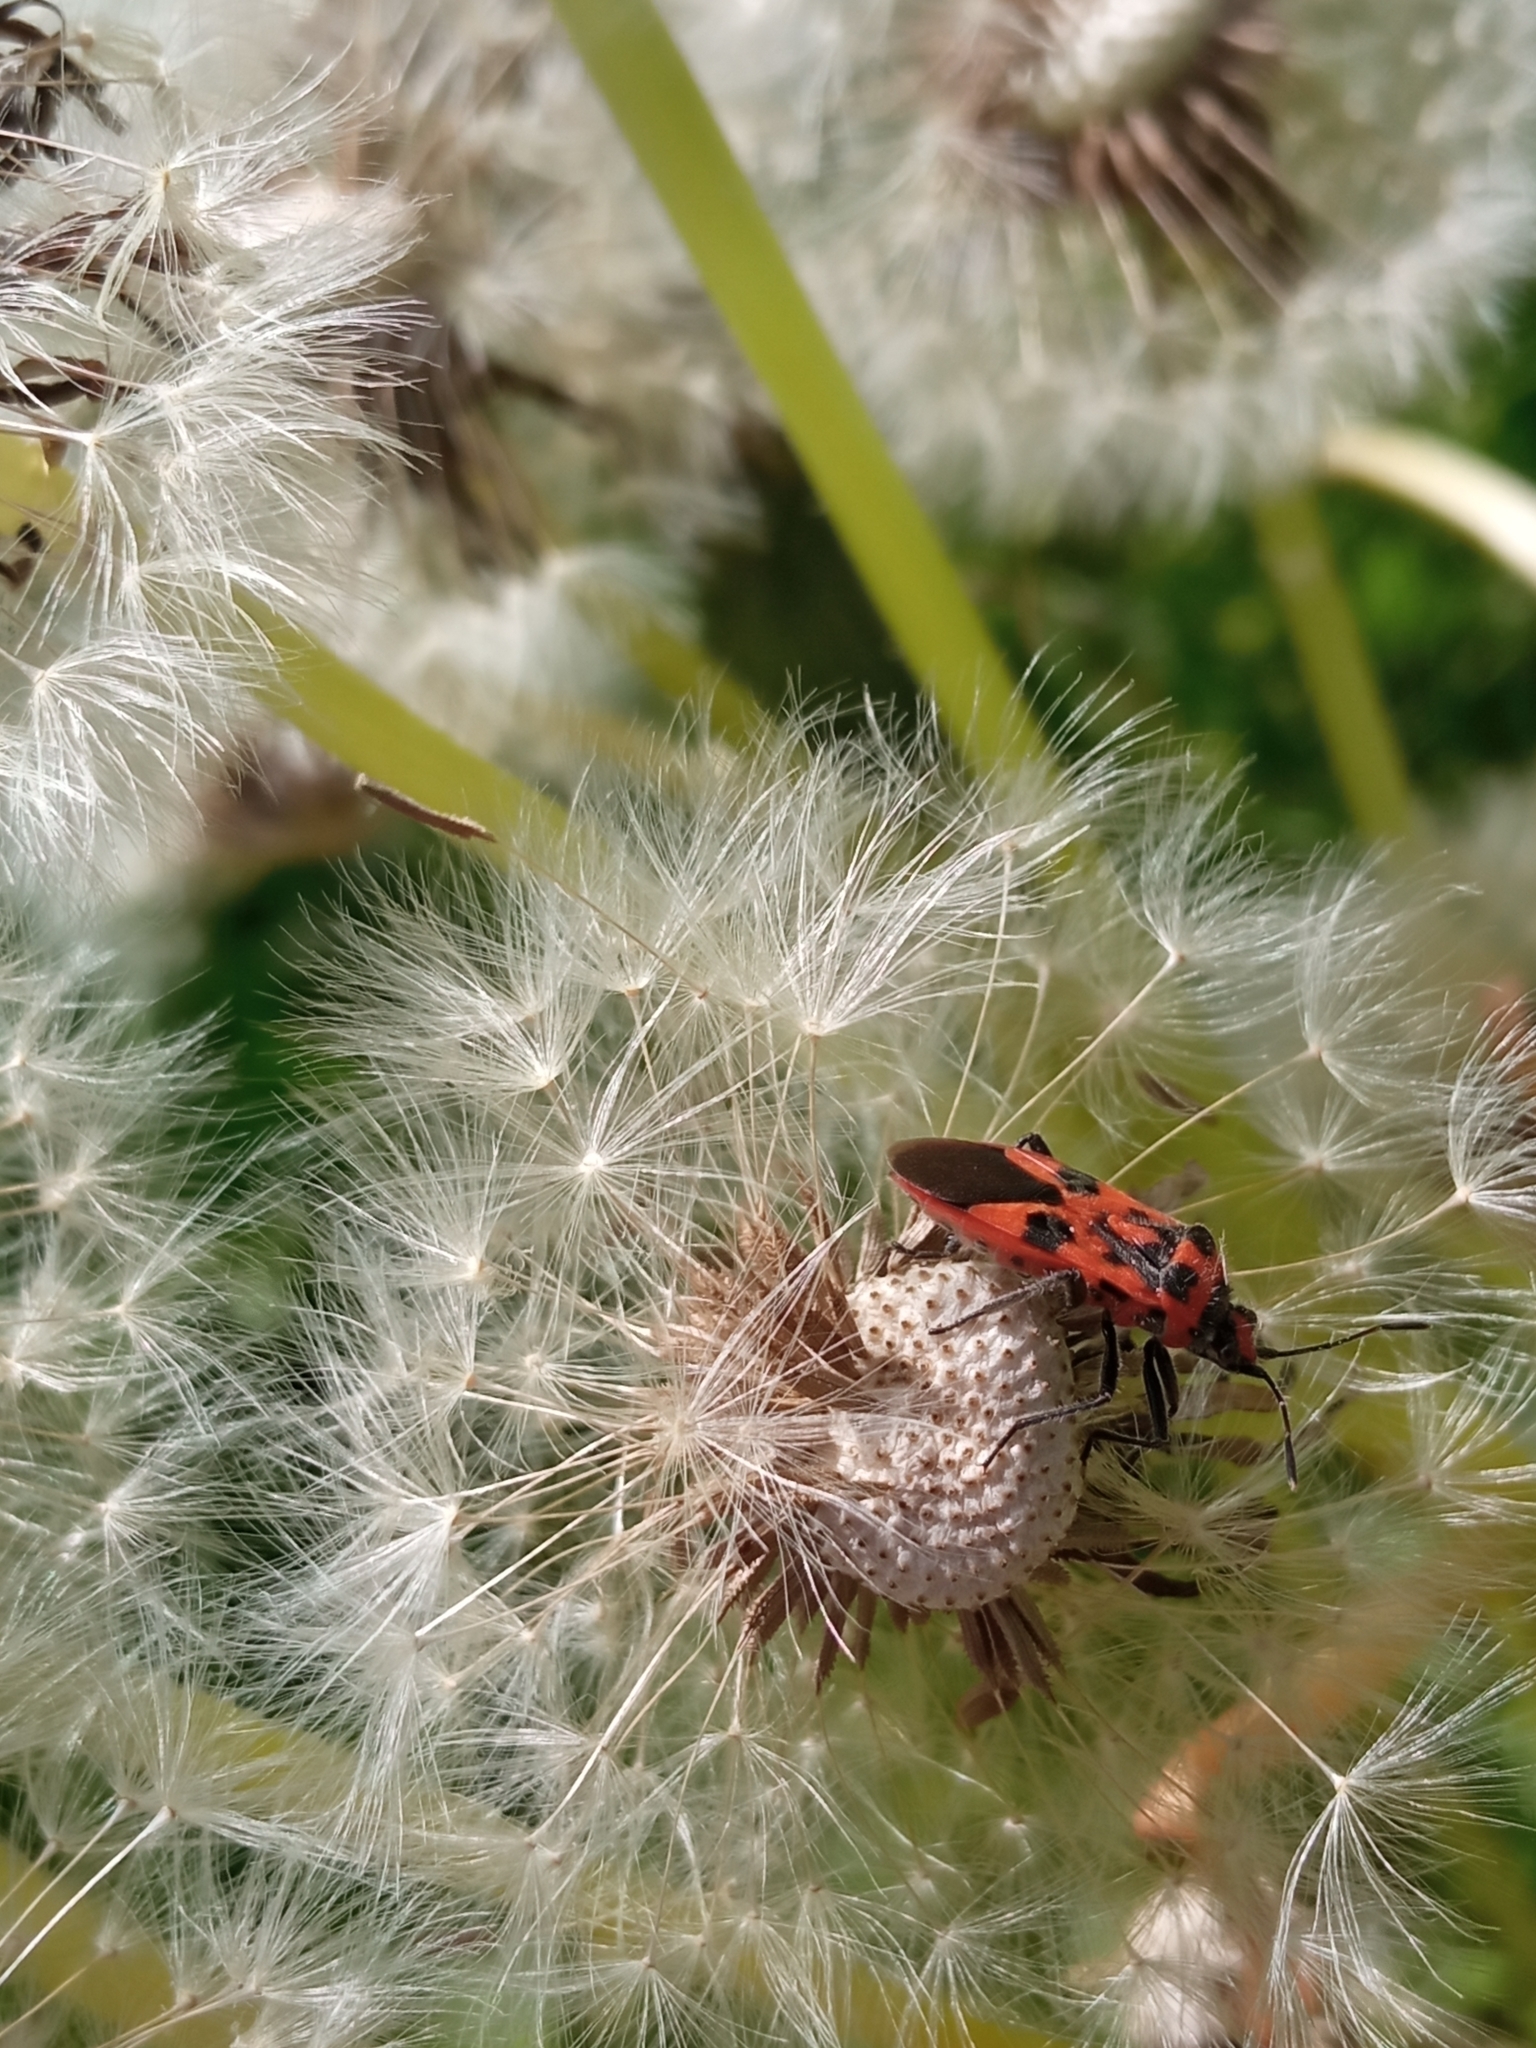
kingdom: Animalia
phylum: Arthropoda
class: Insecta
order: Hemiptera
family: Rhopalidae
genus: Corizus
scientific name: Corizus hyoscyami
